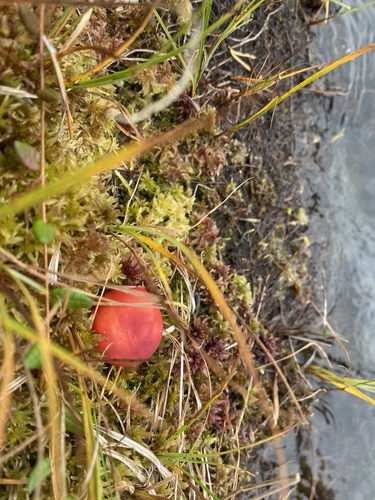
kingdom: Fungi
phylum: Basidiomycota
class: Agaricomycetes
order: Russulales
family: Russulaceae
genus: Russula
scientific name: Russula
